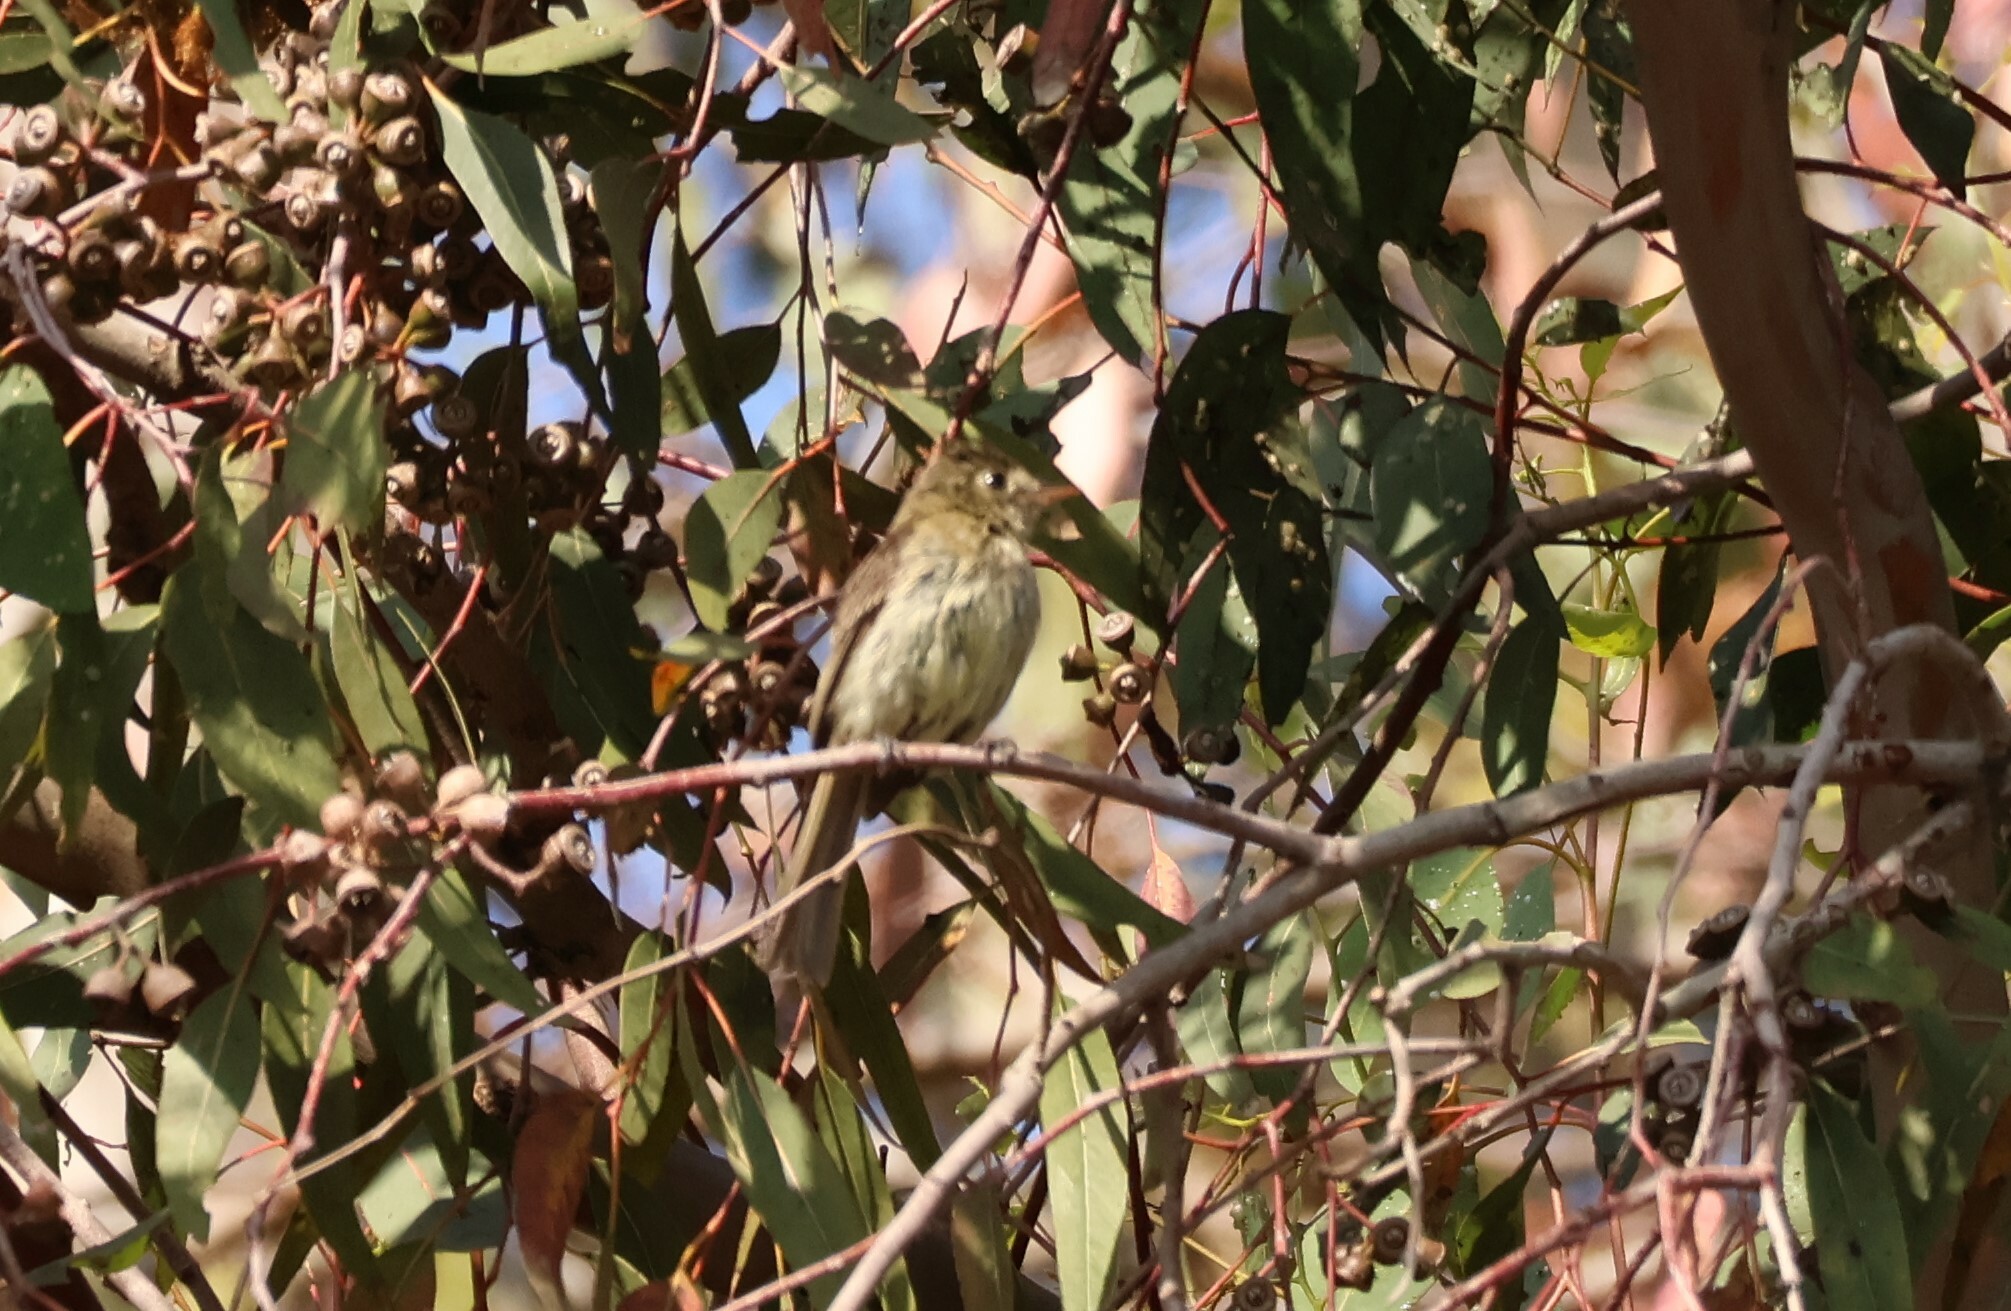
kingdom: Animalia
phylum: Chordata
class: Aves
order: Passeriformes
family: Tyrannidae
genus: Empidonax
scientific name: Empidonax difficilis
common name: Pacific-slope flycatcher
